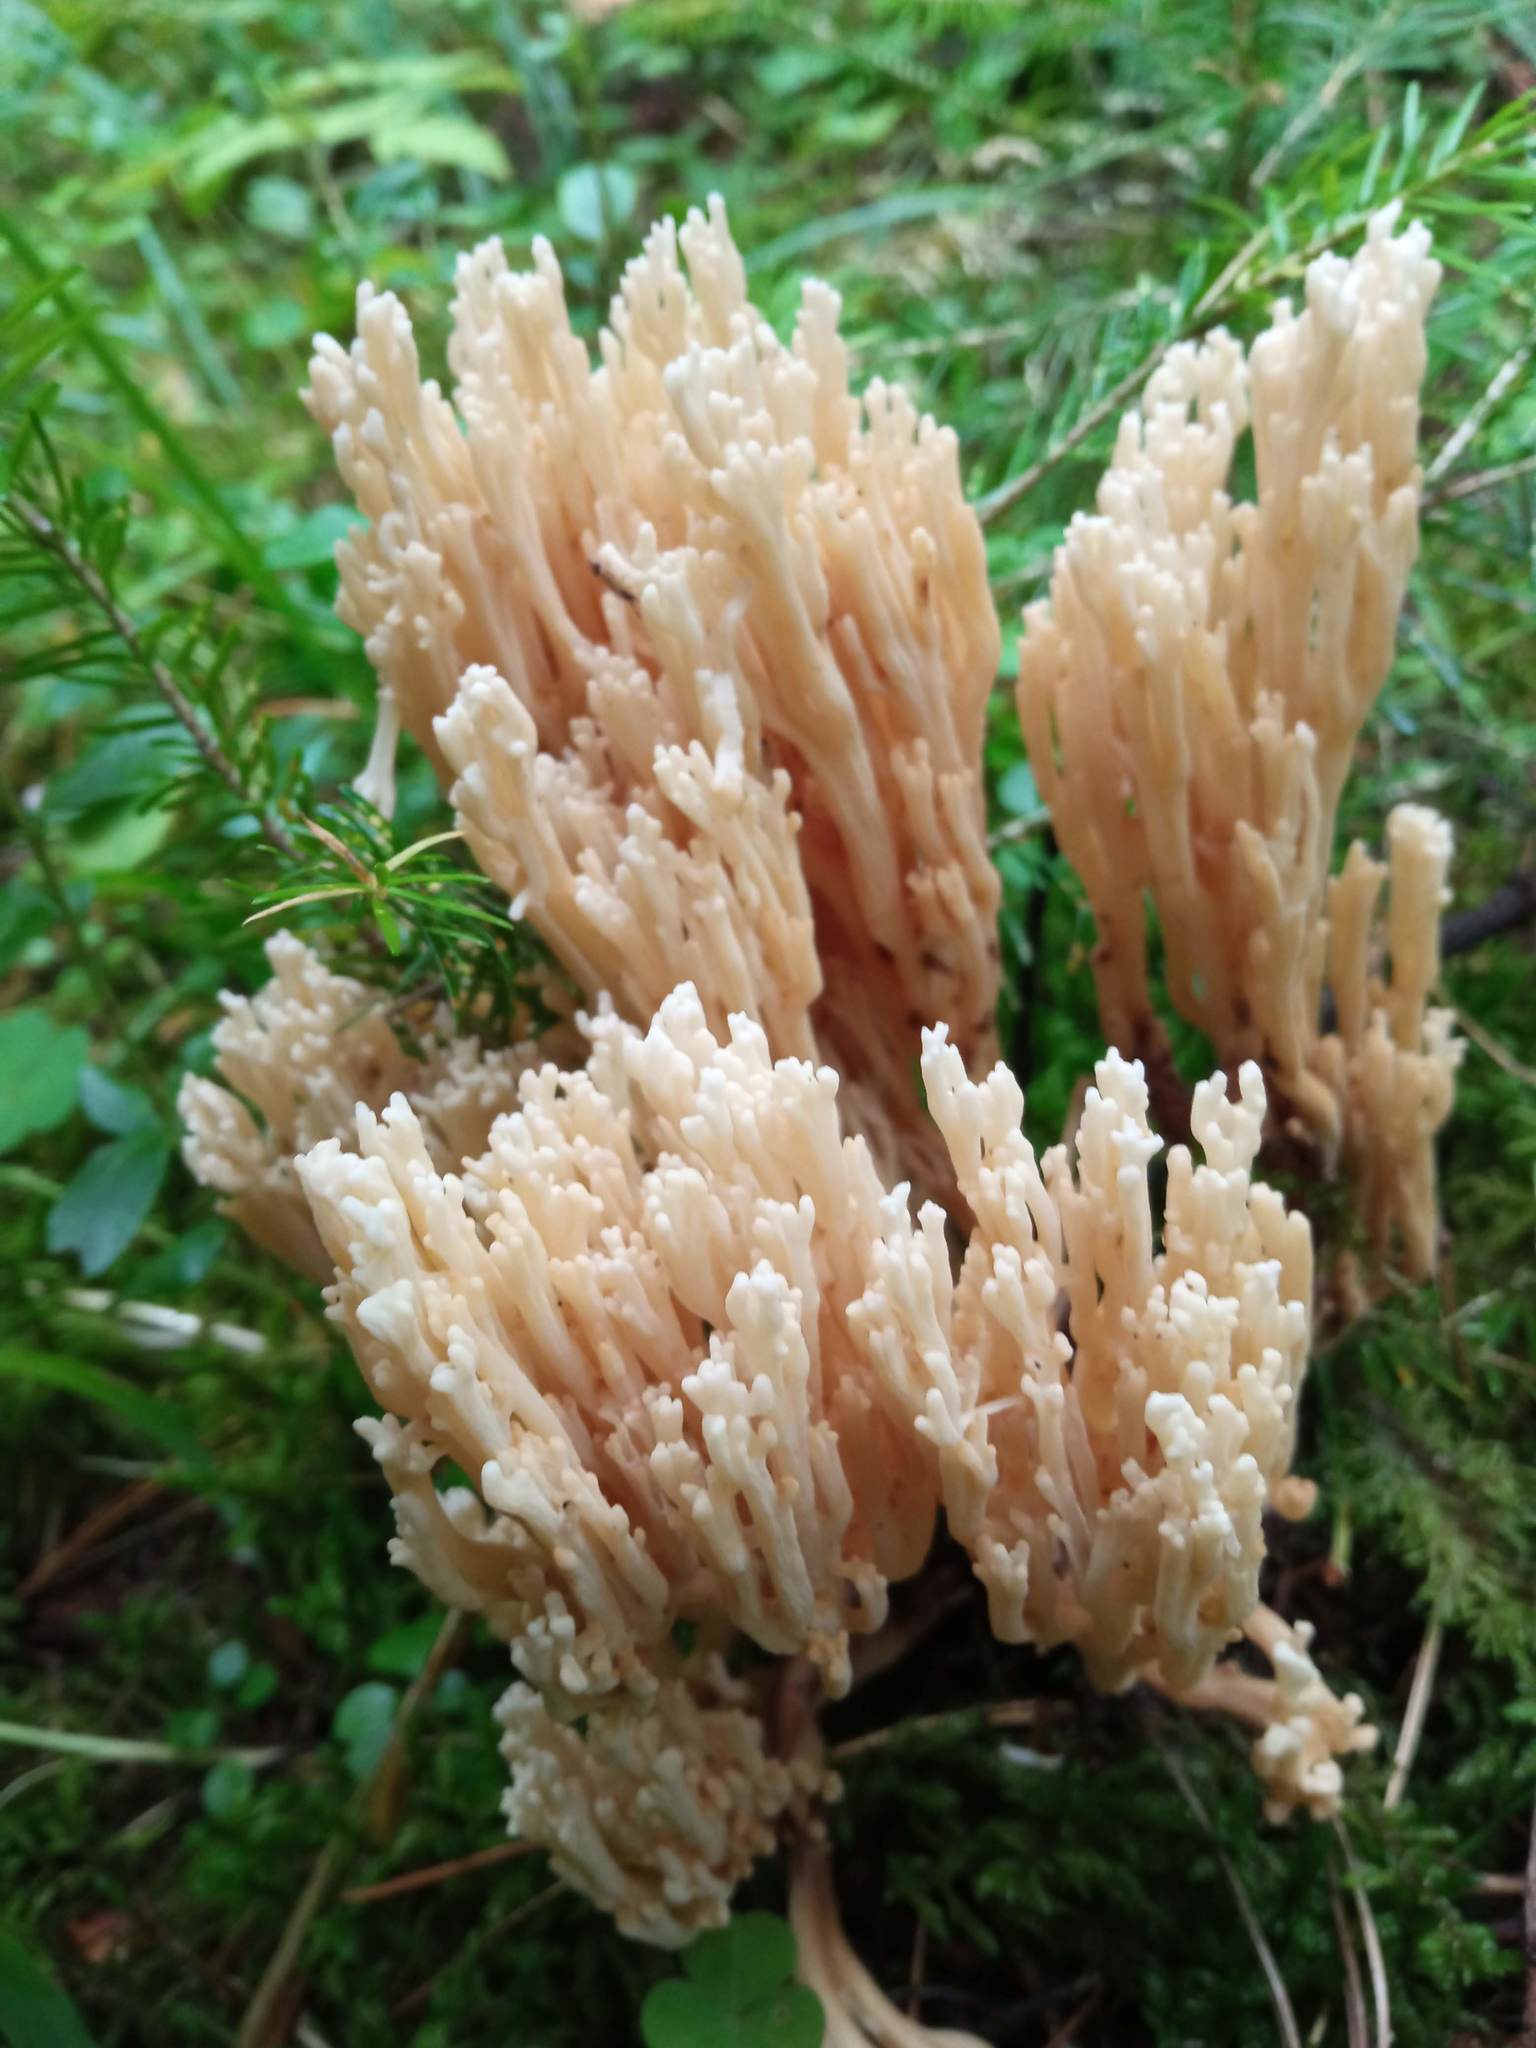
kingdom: Fungi
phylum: Basidiomycota
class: Agaricomycetes
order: Gomphales
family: Gomphaceae
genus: Ramaria
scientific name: Ramaria pallida
